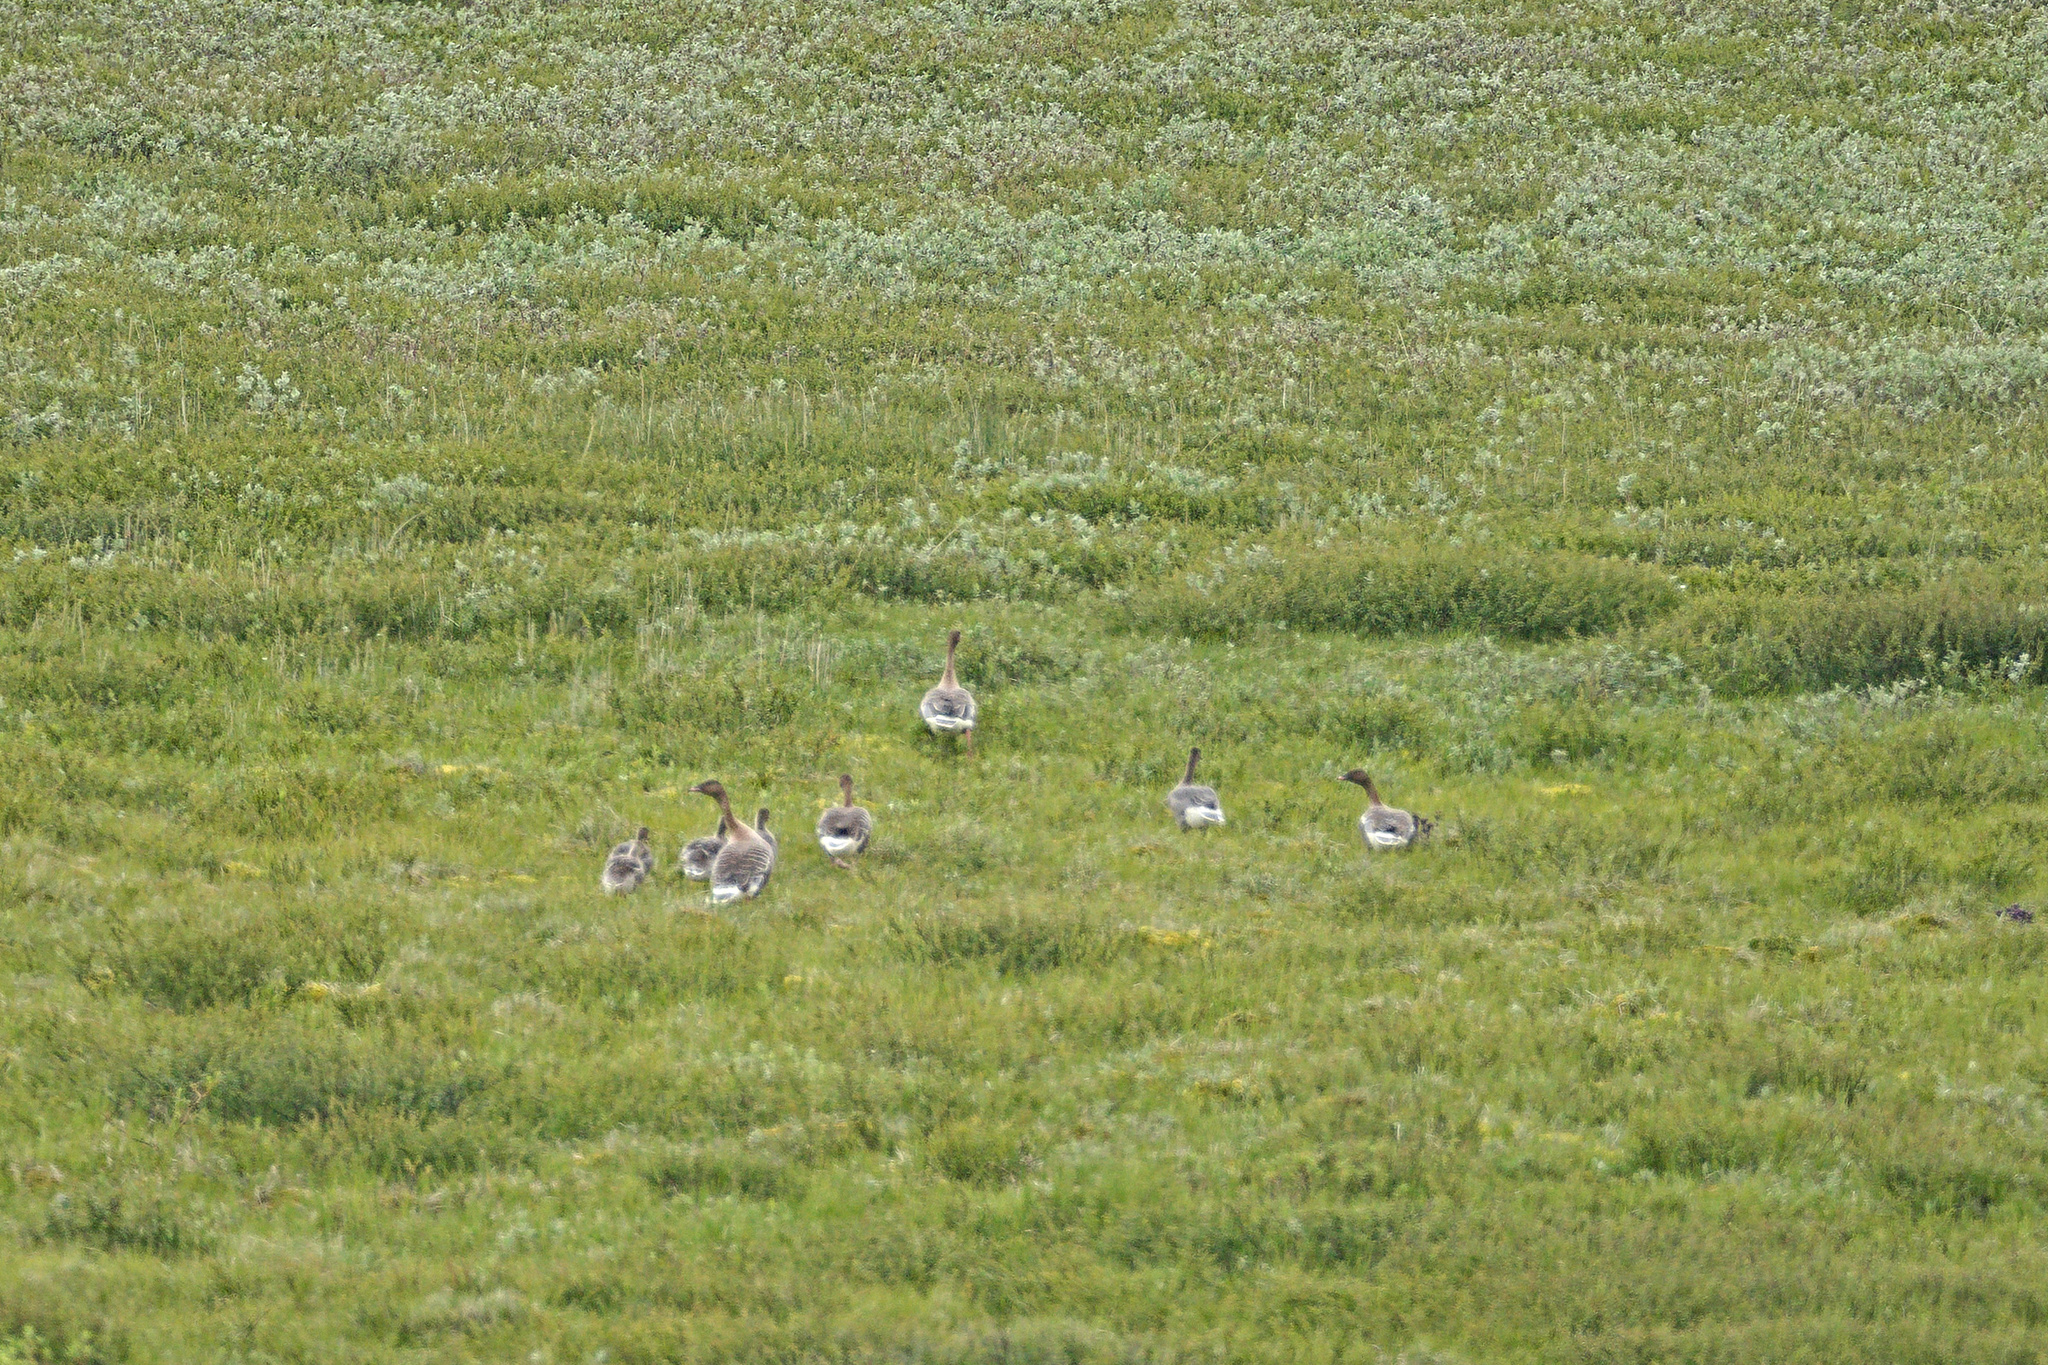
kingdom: Animalia
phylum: Chordata
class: Aves
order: Anseriformes
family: Anatidae
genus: Anser
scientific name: Anser brachyrhynchus
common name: Pink-footed goose
